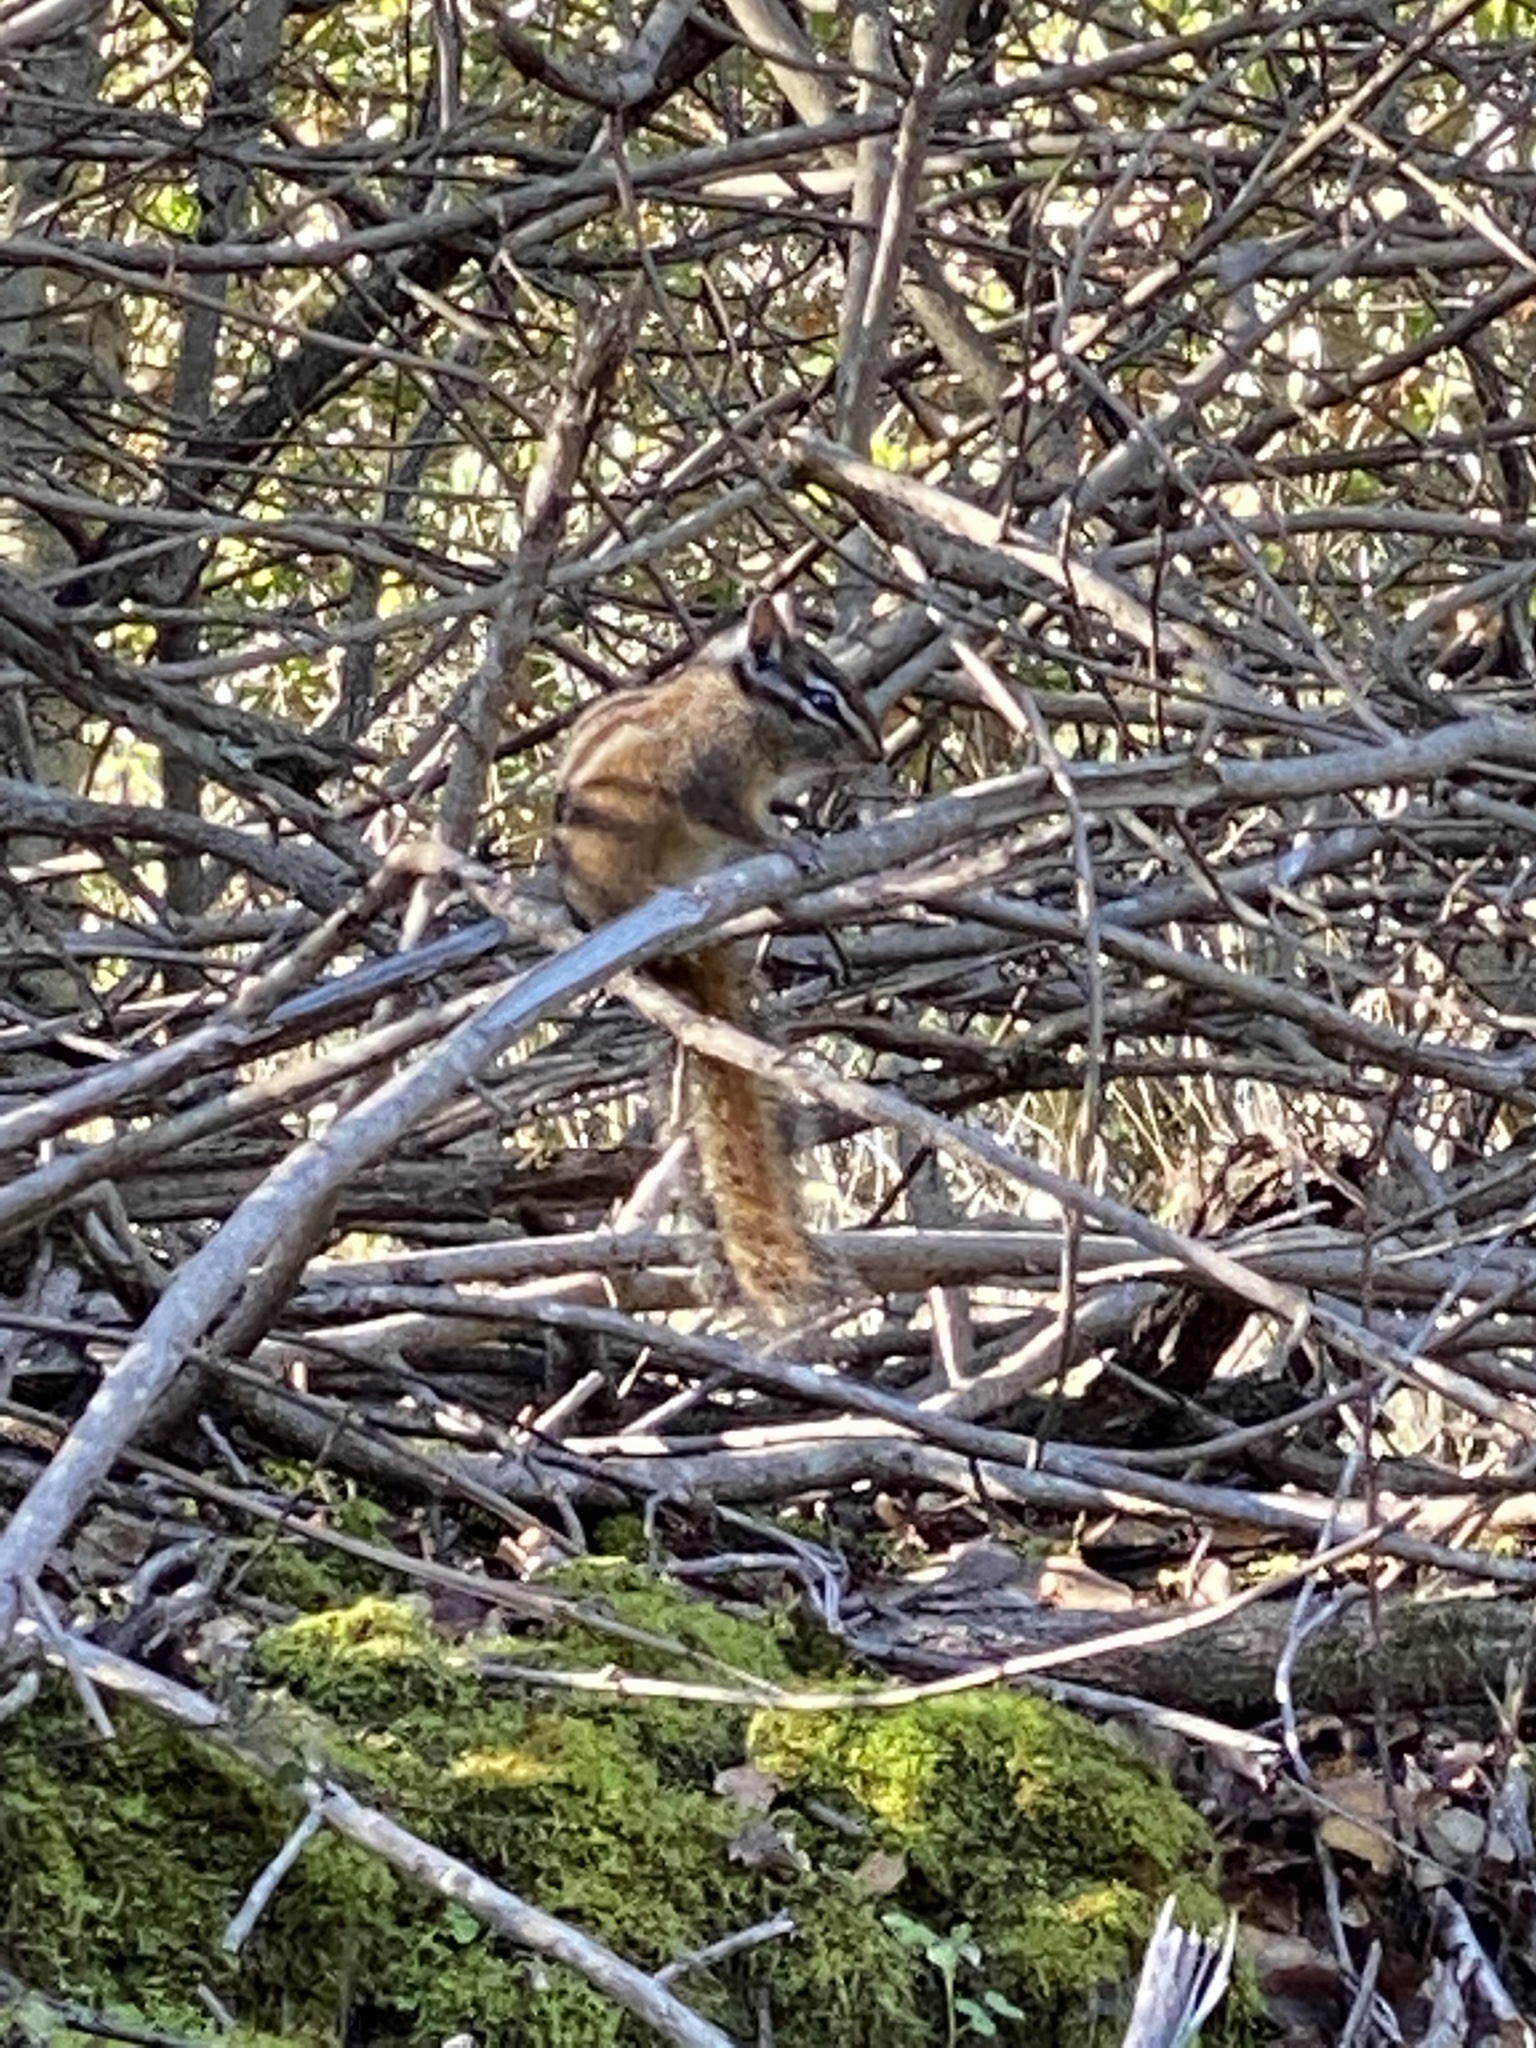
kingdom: Animalia
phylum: Chordata
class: Mammalia
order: Rodentia
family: Sciuridae
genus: Tamias
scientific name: Tamias merriami
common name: Merriam's chipmunk
